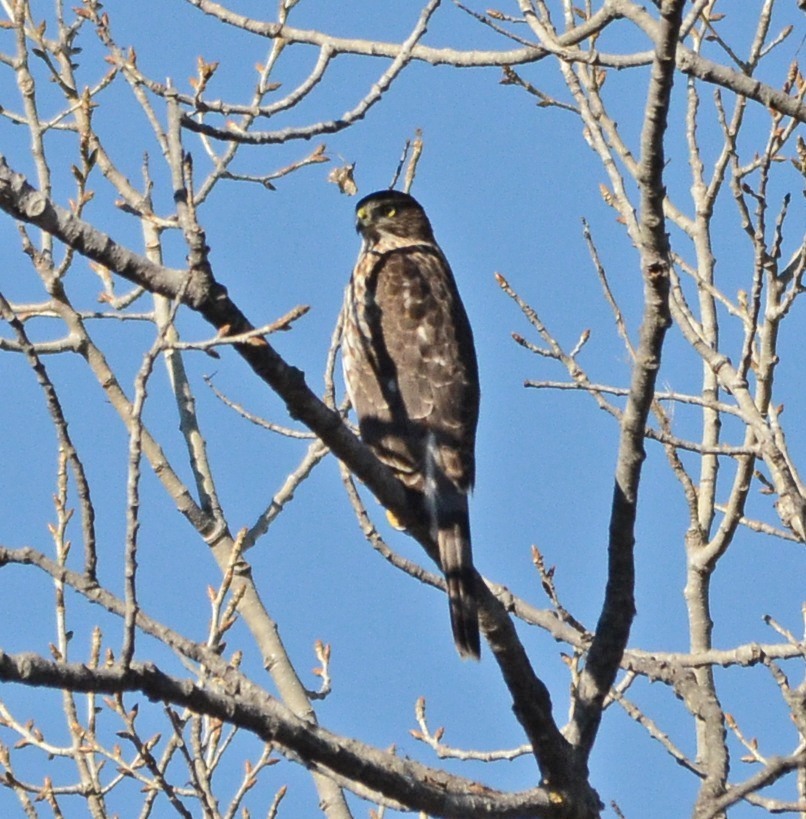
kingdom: Animalia
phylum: Chordata
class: Aves
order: Accipitriformes
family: Accipitridae
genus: Accipiter
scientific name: Accipiter cooperii
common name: Cooper's hawk
